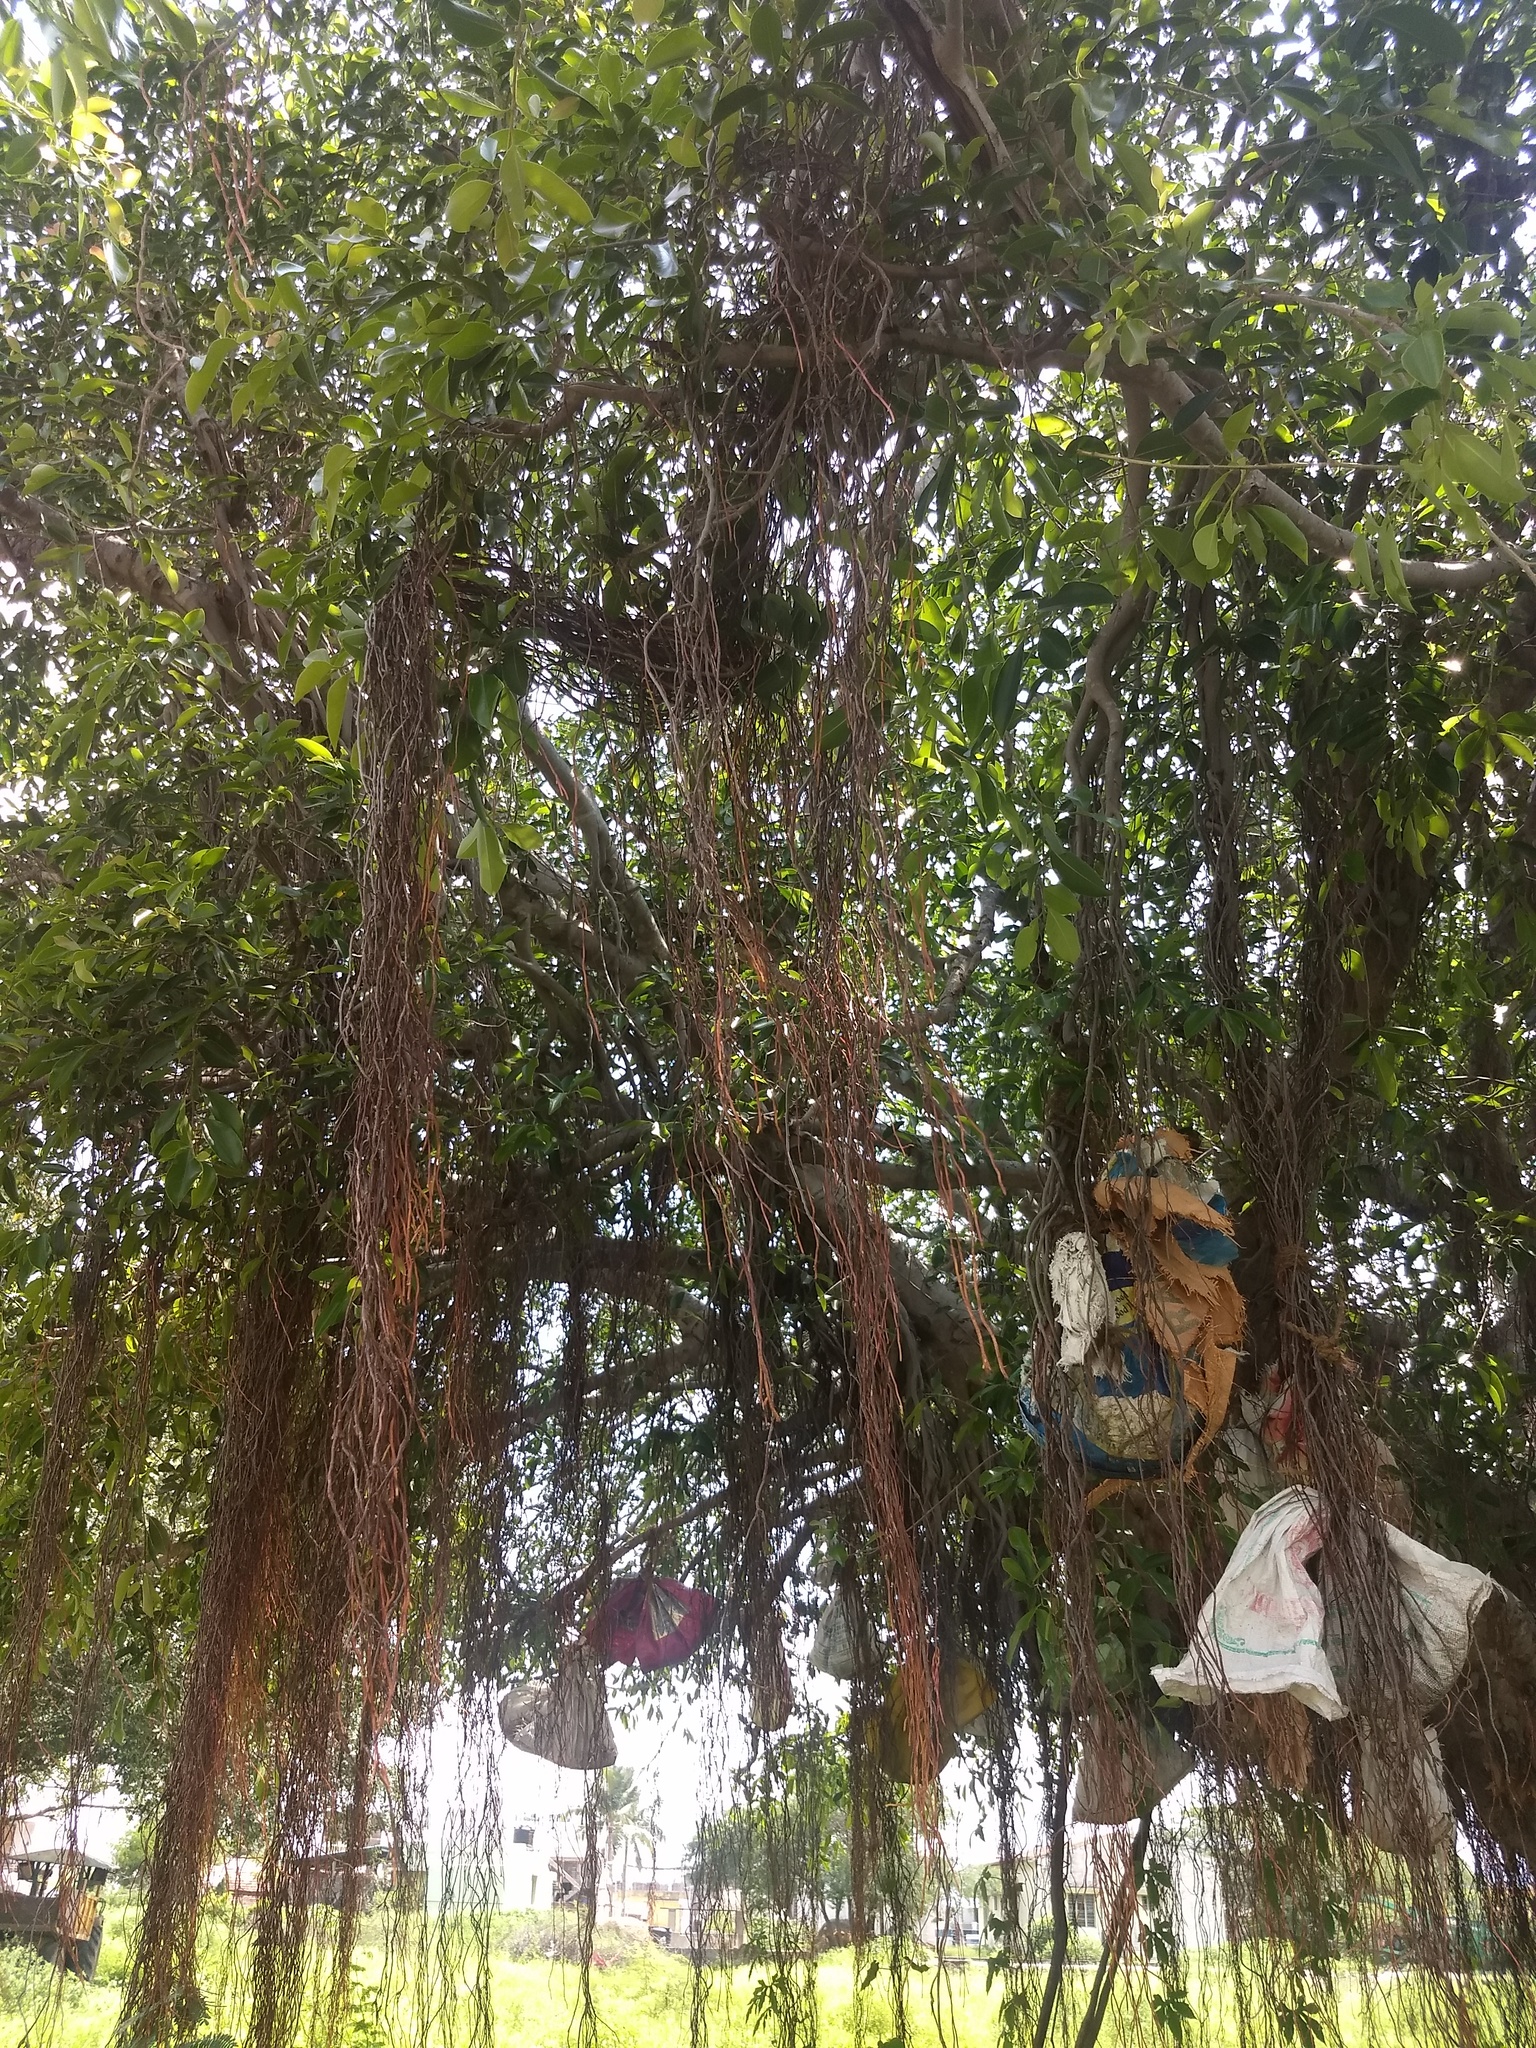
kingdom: Plantae
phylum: Tracheophyta
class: Magnoliopsida
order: Rosales
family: Moraceae
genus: Ficus
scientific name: Ficus microcarpa
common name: Chinese banyan
